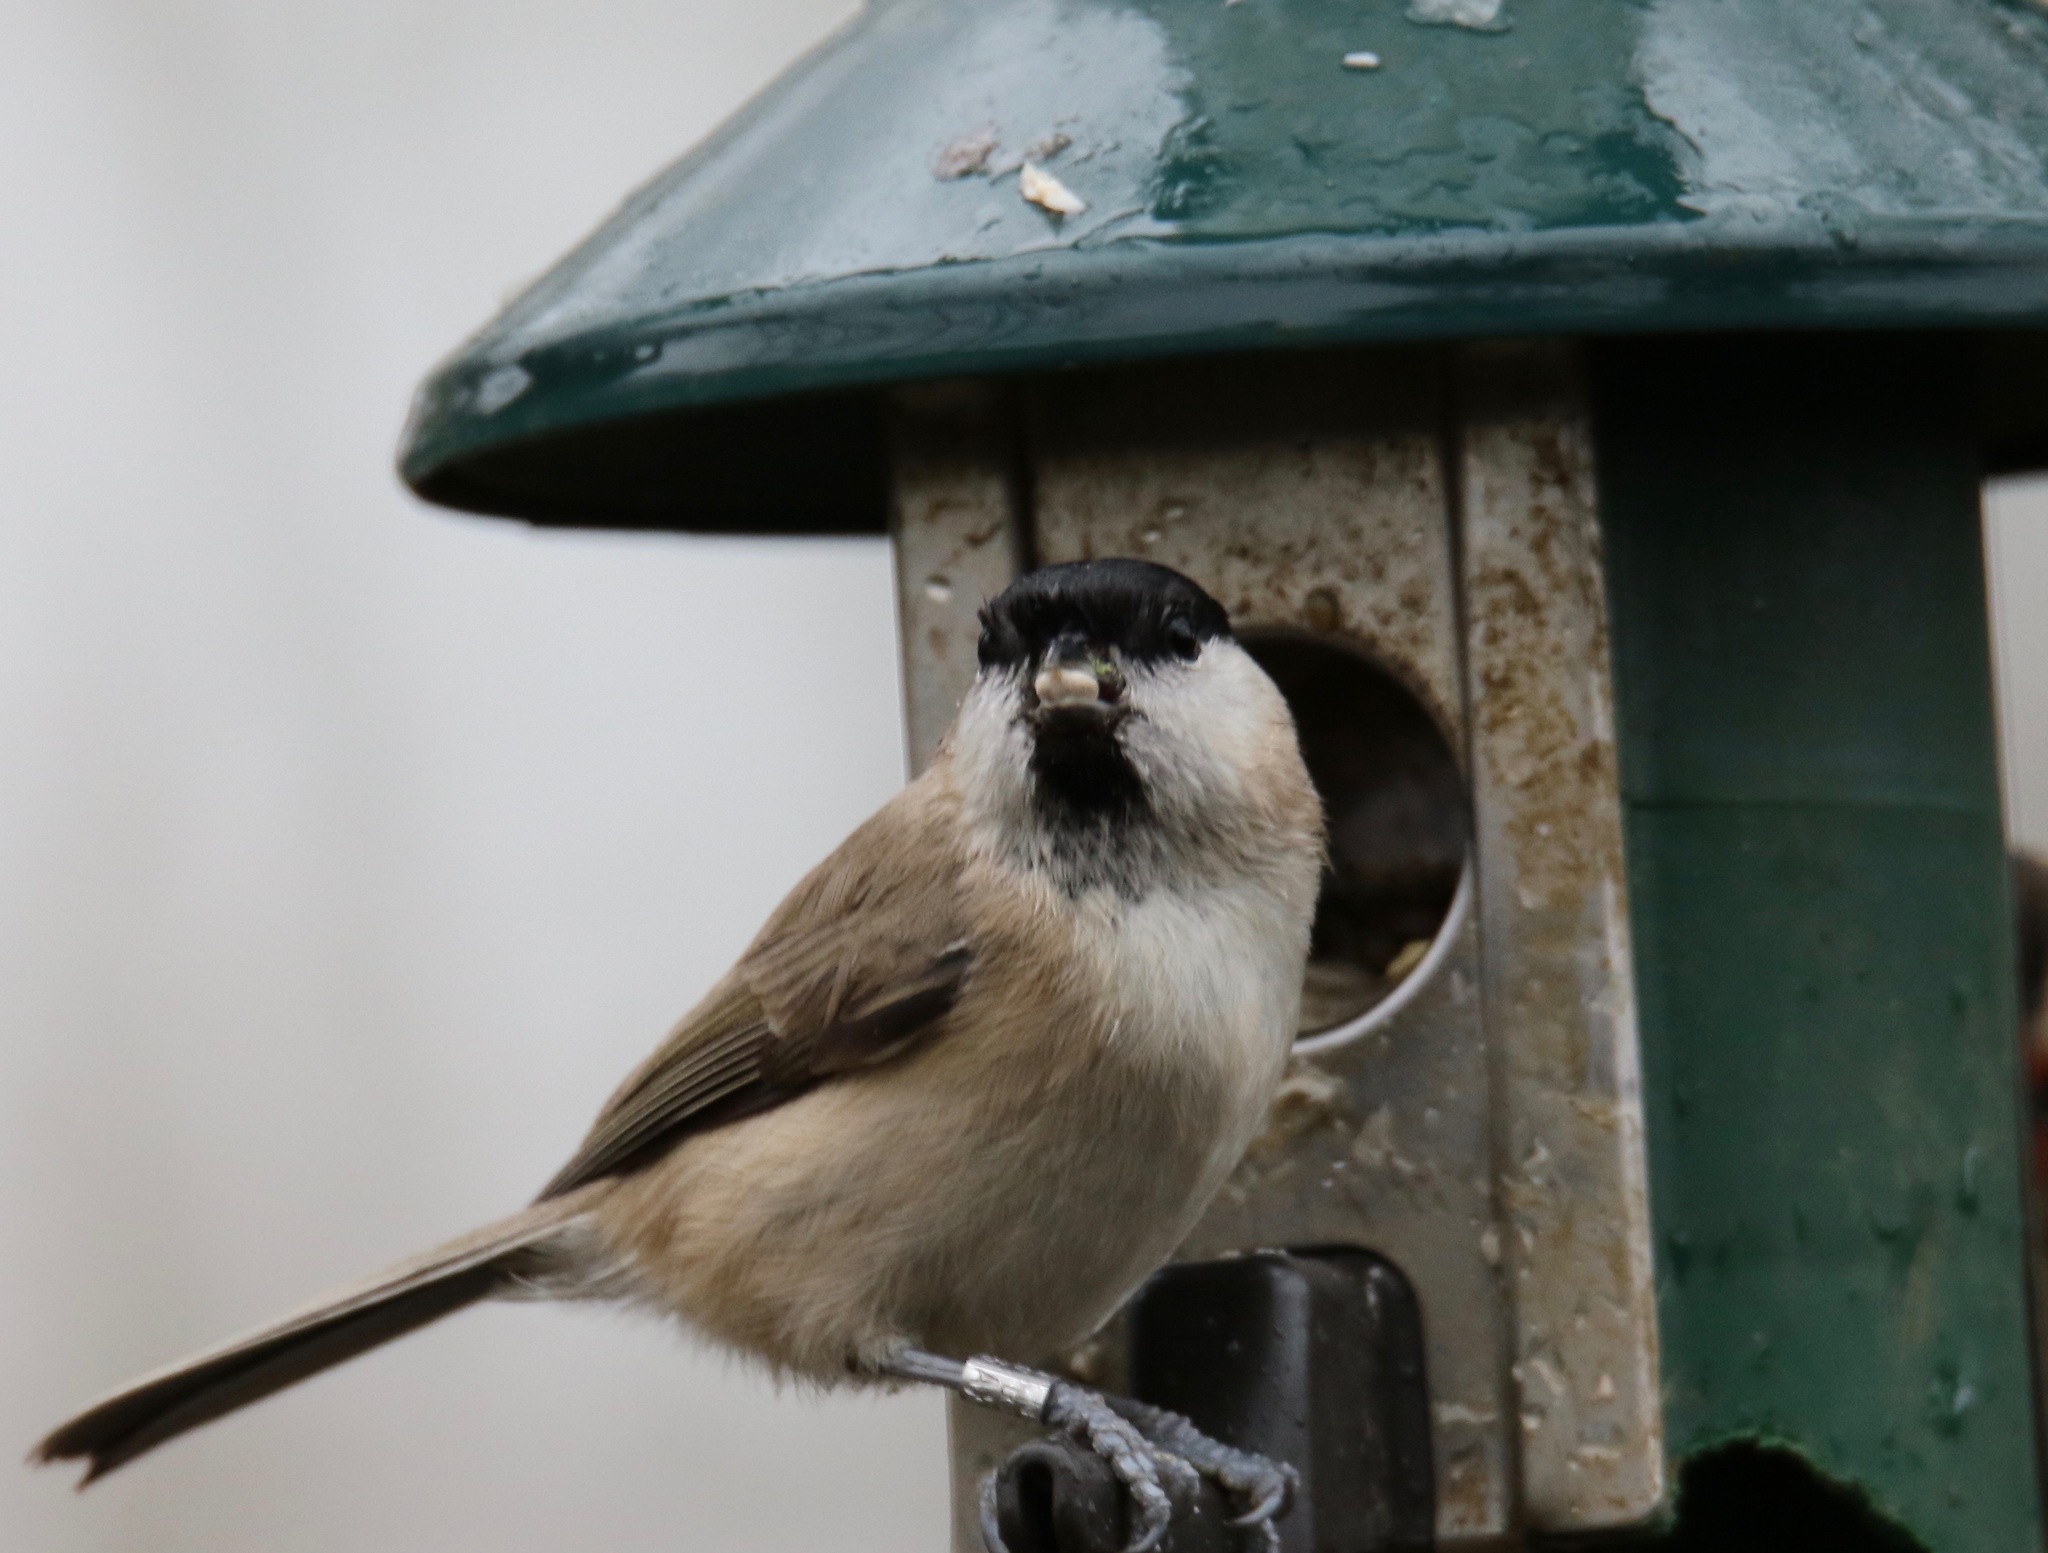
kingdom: Animalia
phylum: Chordata
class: Aves
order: Passeriformes
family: Paridae
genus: Poecile
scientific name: Poecile palustris
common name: Marsh tit
